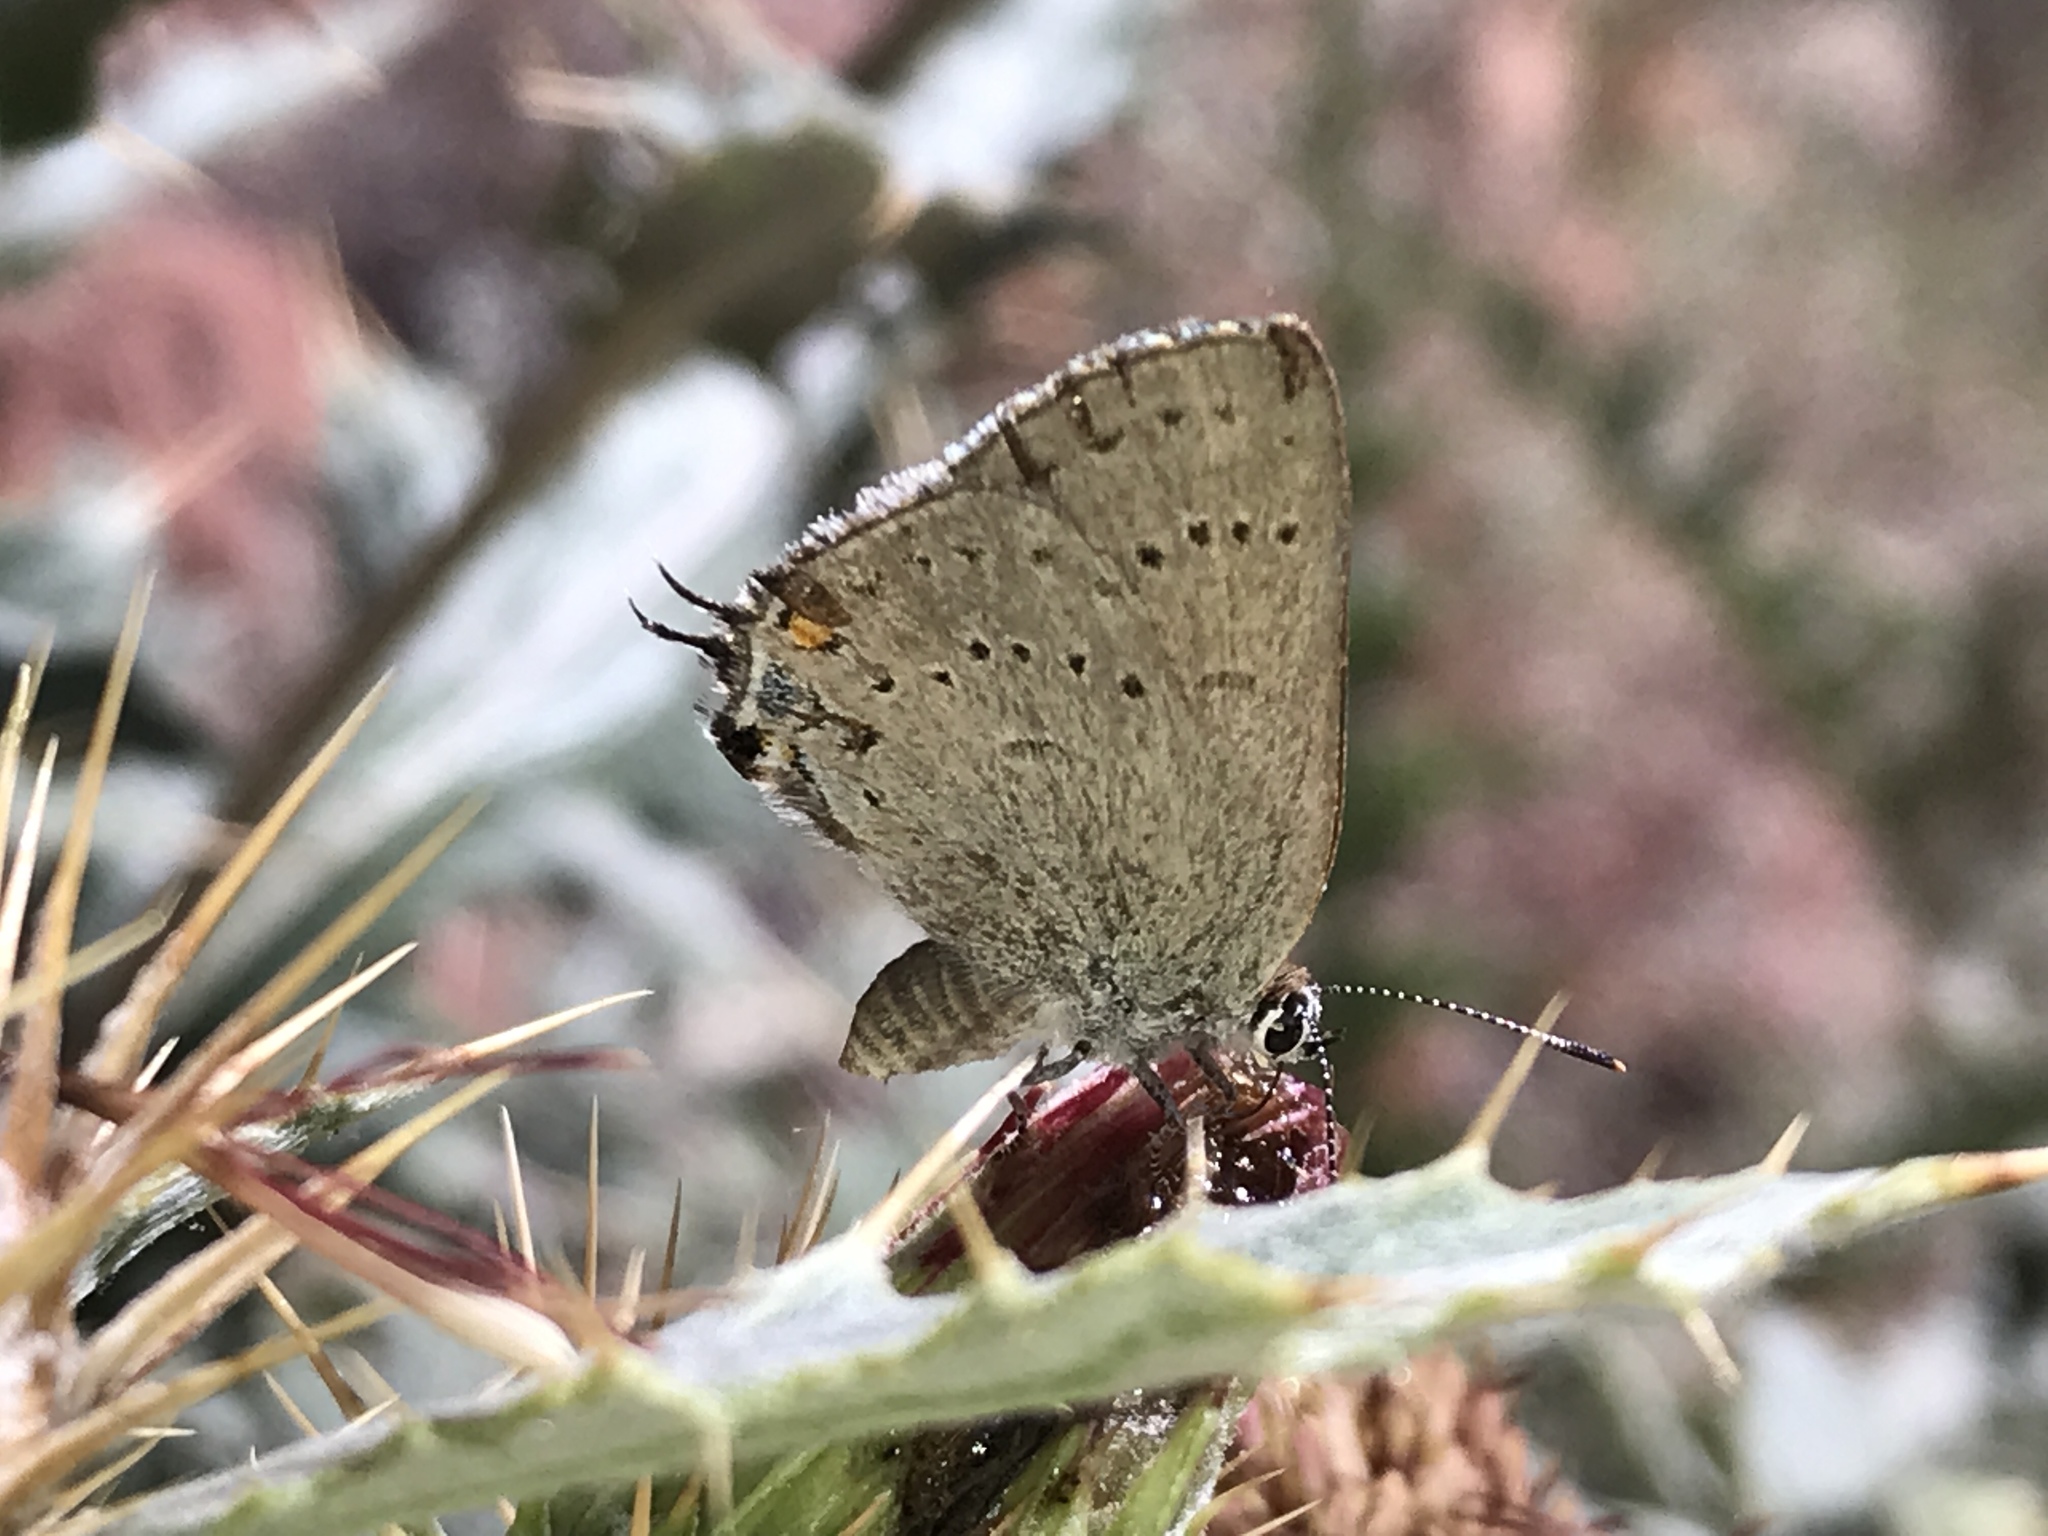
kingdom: Animalia
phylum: Arthropoda
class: Insecta
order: Lepidoptera
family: Lycaenidae
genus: Strymon
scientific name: Strymon sylvinus
